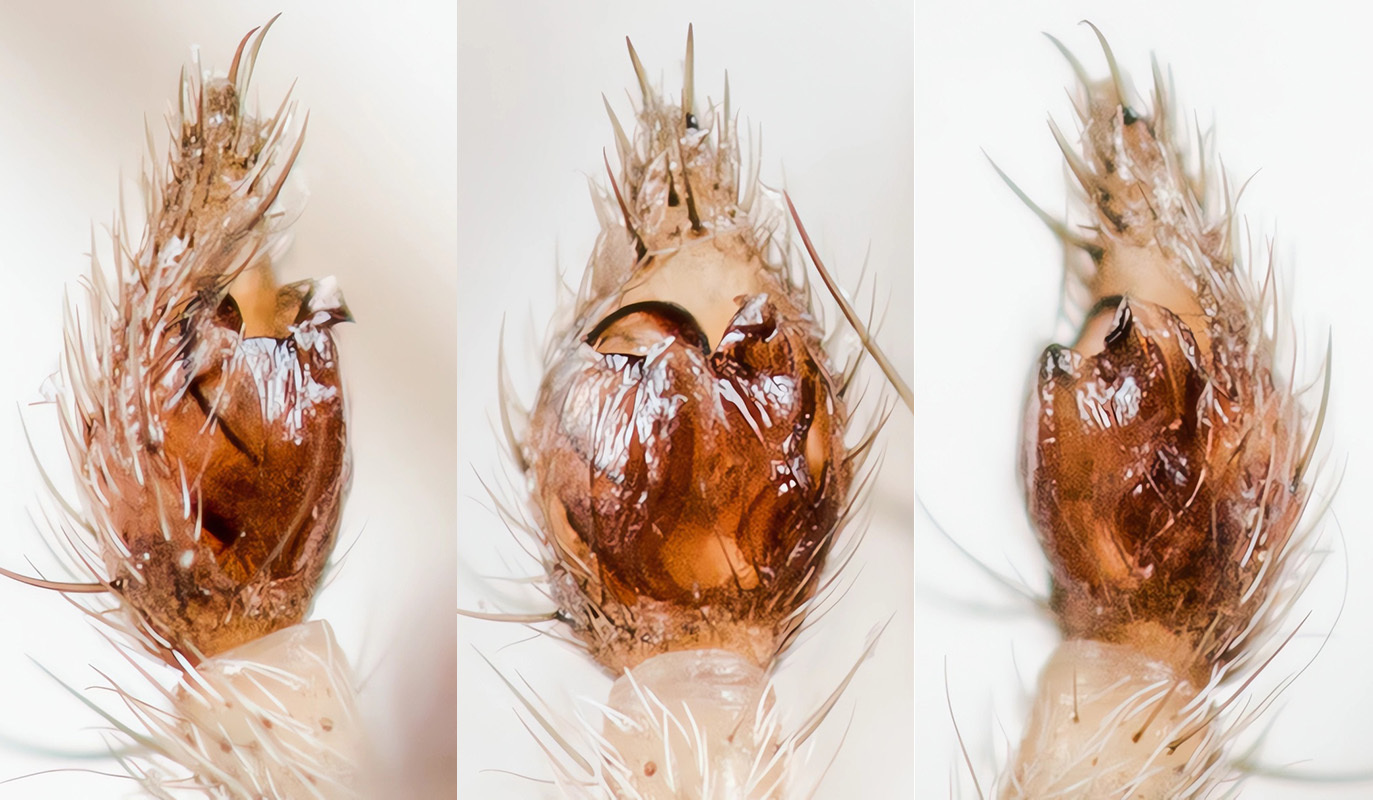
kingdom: Animalia
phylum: Arthropoda
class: Arachnida
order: Araneae
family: Lycosidae
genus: Evippa
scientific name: Evippa beschkentica
